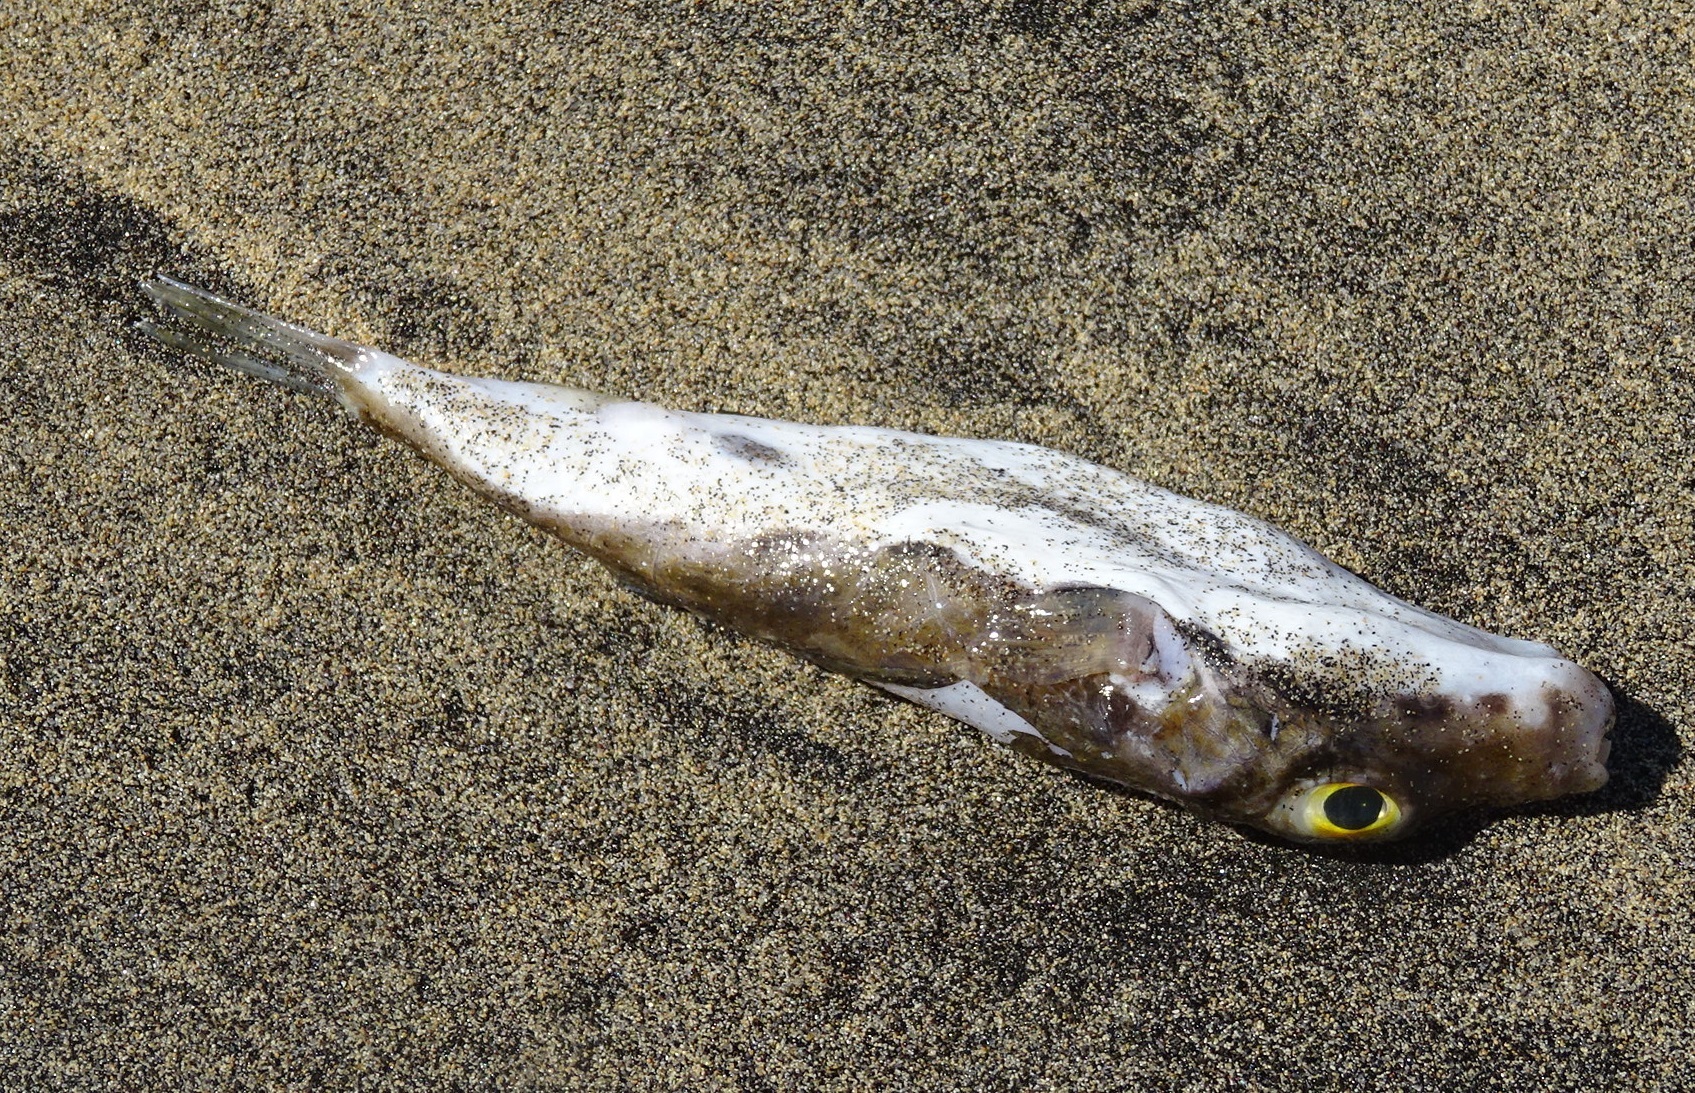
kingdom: Animalia
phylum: Chordata
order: Tetraodontiformes
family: Tetraodontidae
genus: Sphoeroides
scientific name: Sphoeroides marmoratus
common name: Guinean puffer
